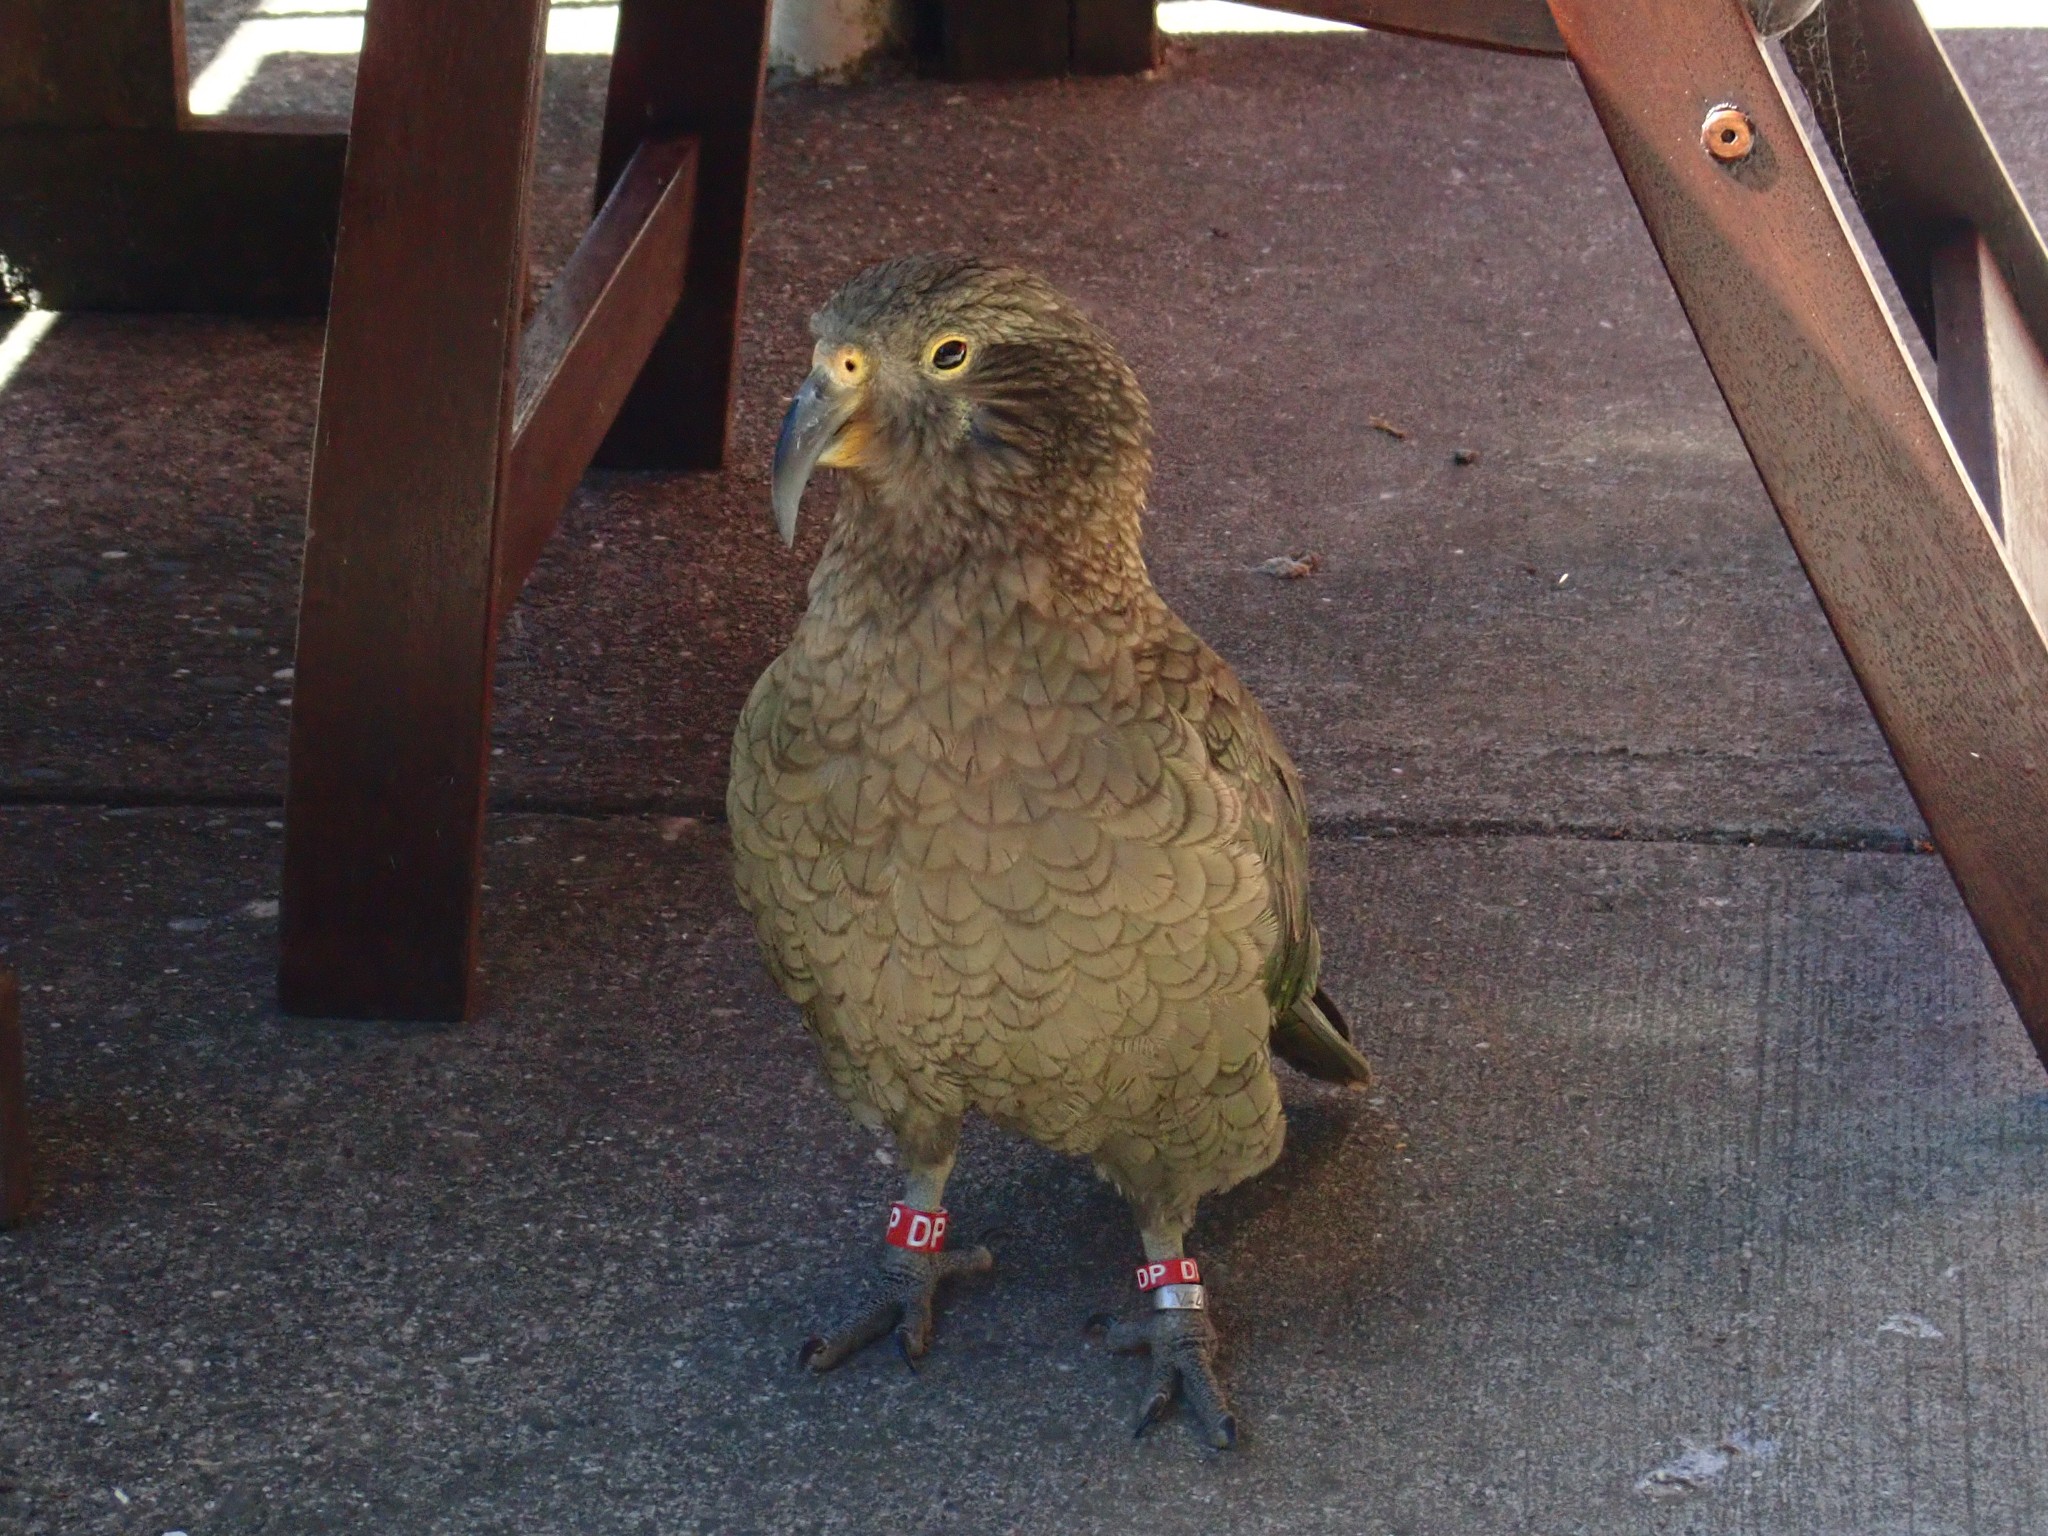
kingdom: Animalia
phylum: Chordata
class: Aves
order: Psittaciformes
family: Psittacidae
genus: Nestor
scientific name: Nestor notabilis
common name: Kea
